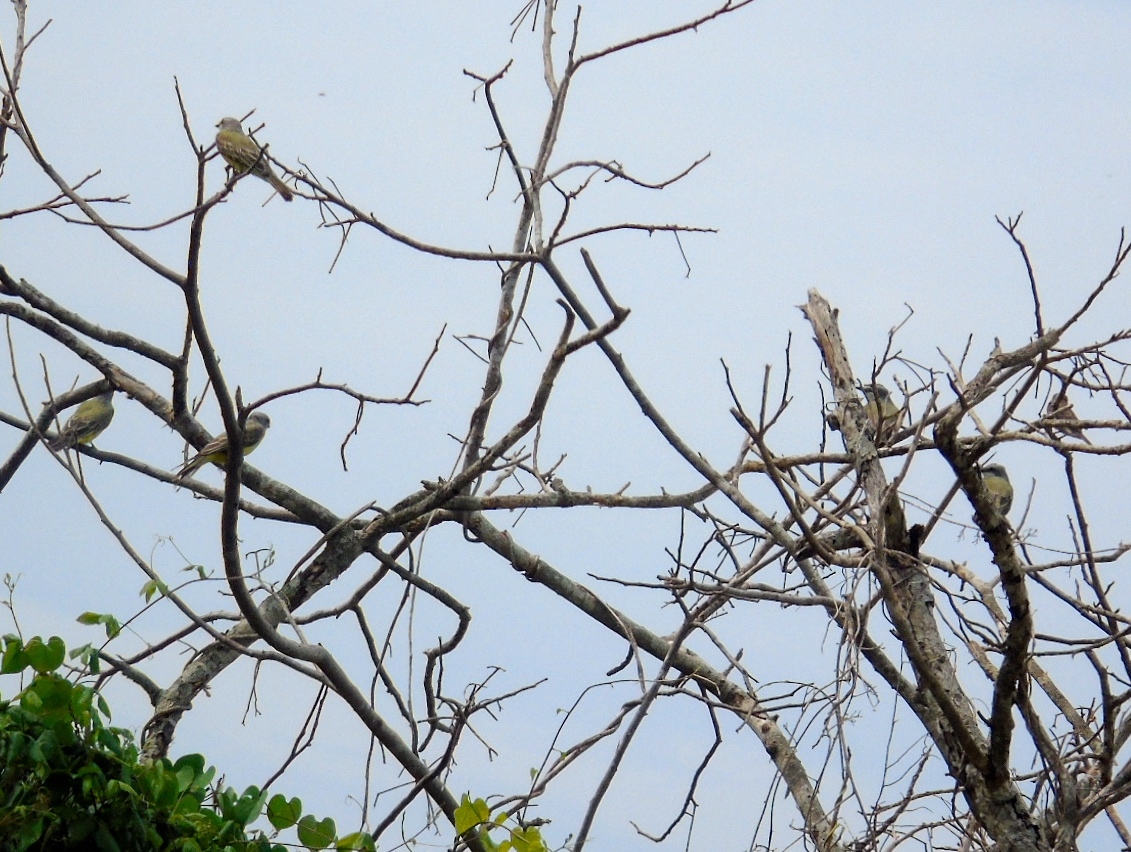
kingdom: Animalia
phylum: Chordata
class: Aves
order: Passeriformes
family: Tyrannidae
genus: Tyrannus
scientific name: Tyrannus melancholicus
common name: Tropical kingbird
